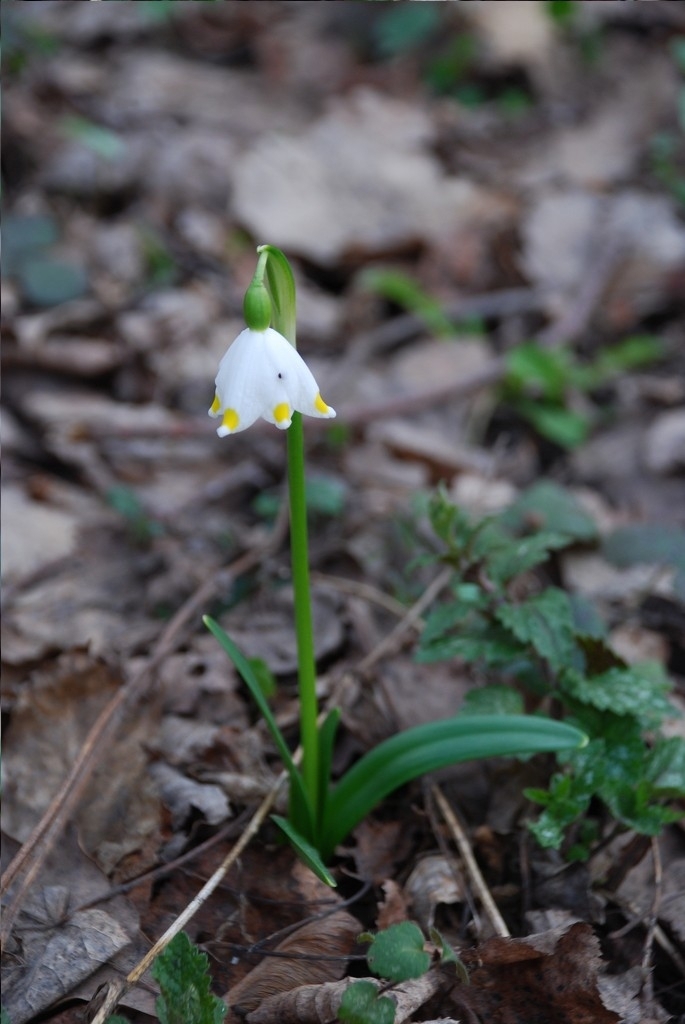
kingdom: Plantae
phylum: Tracheophyta
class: Liliopsida
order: Asparagales
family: Amaryllidaceae
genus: Leucojum
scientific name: Leucojum vernum
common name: Spring snowflake
